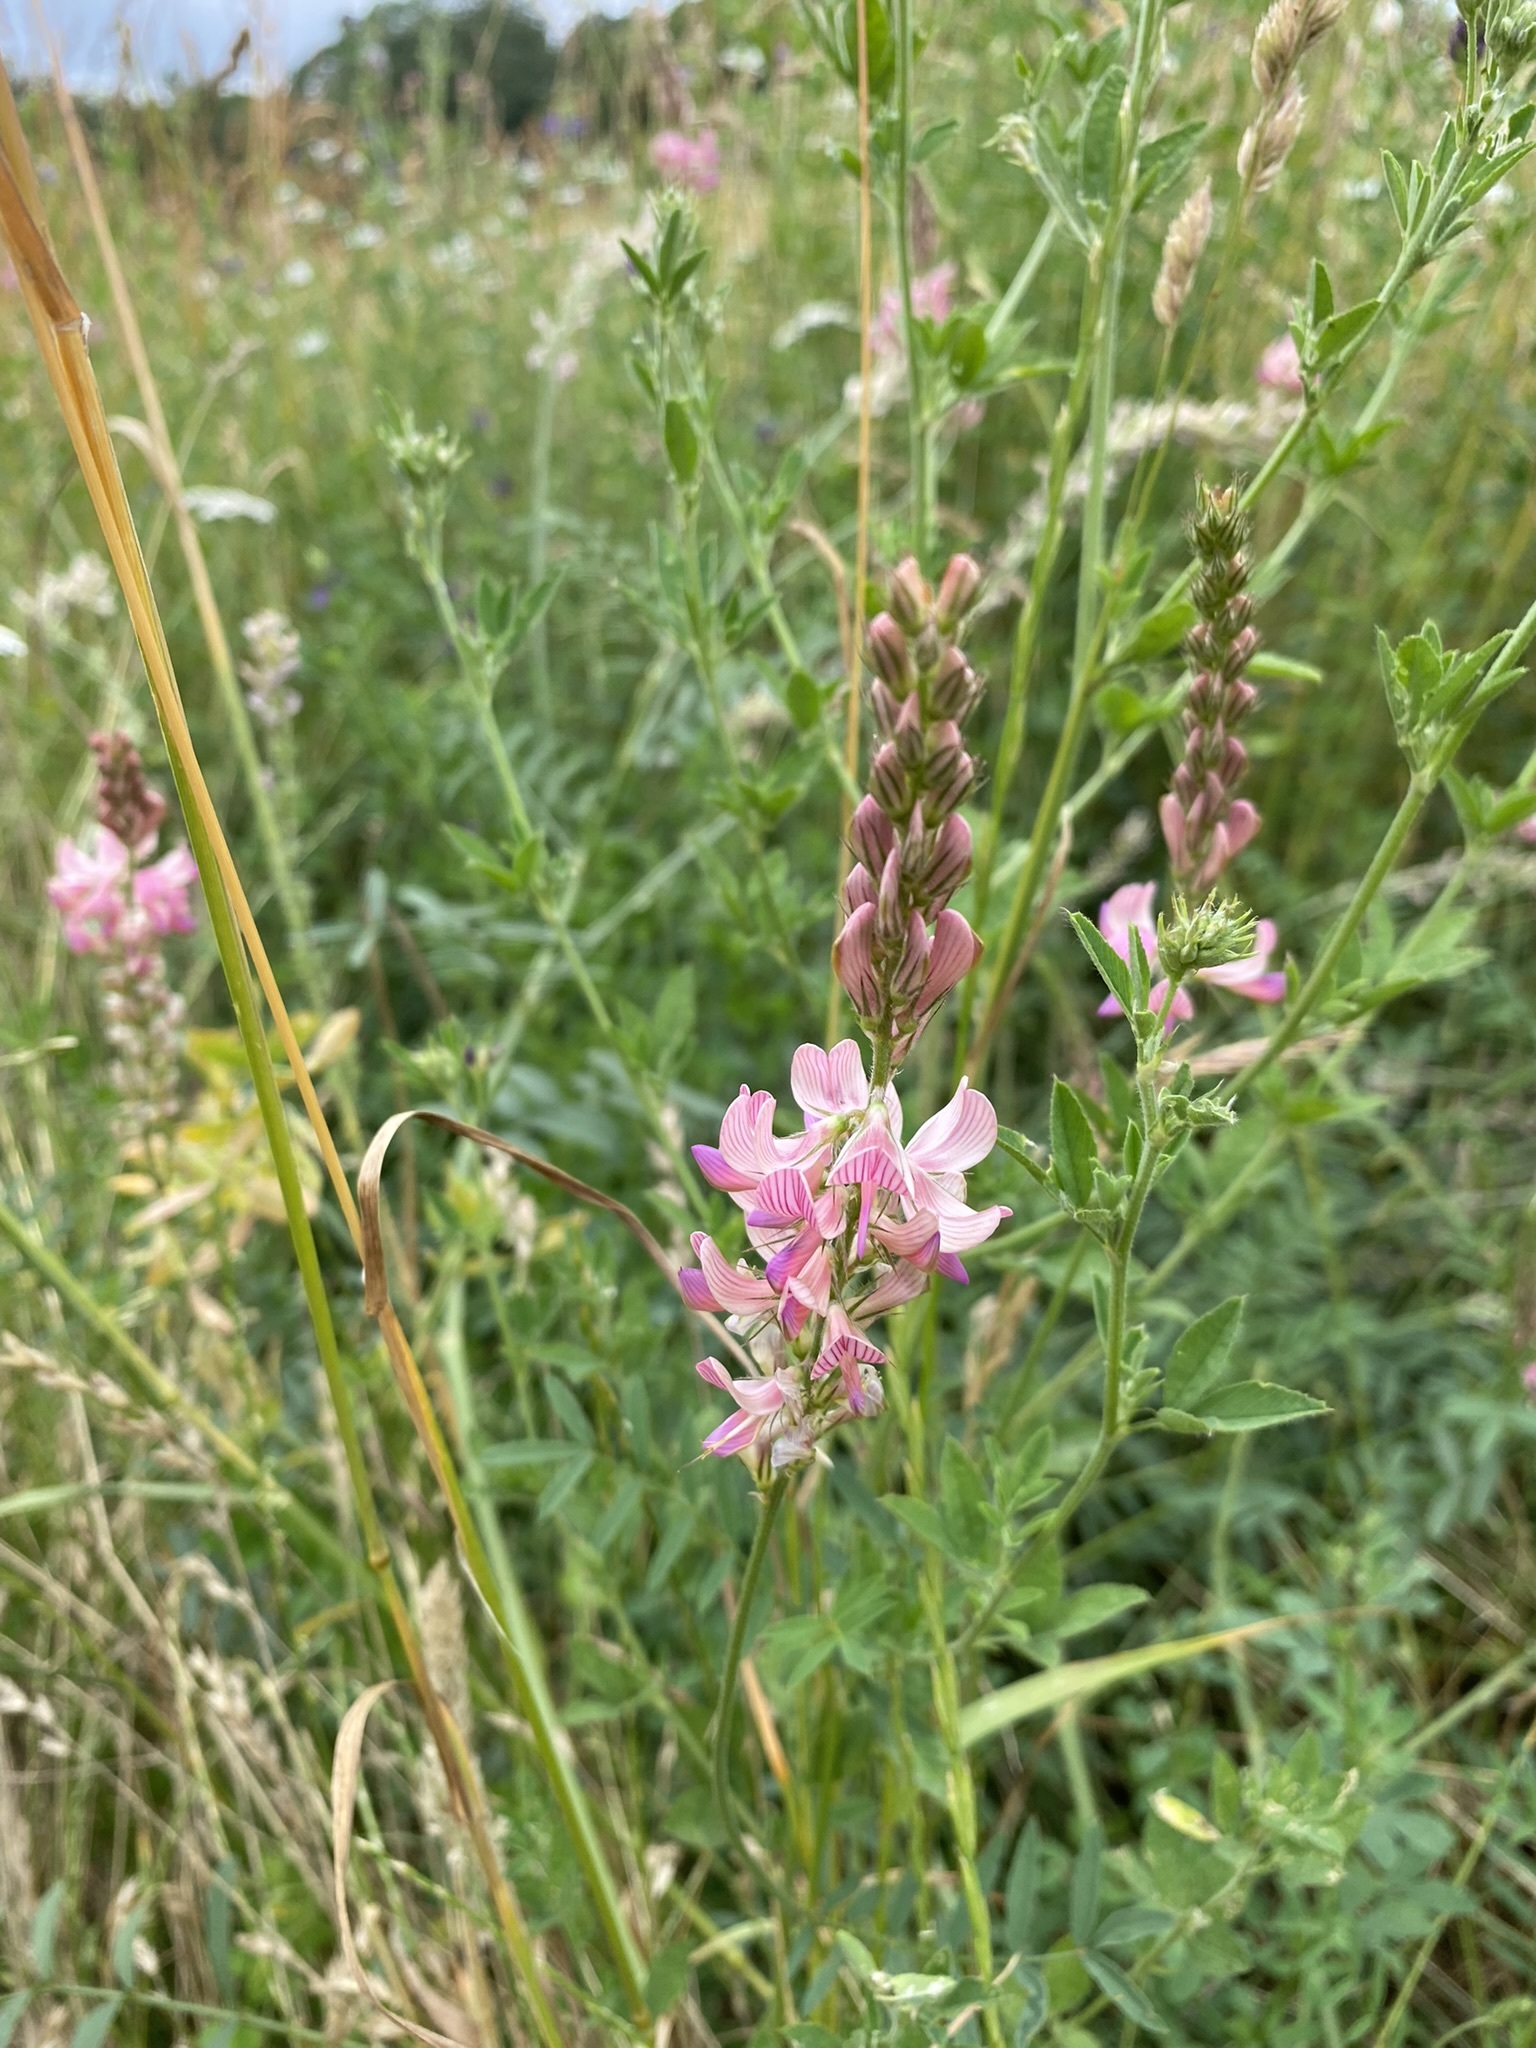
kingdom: Plantae
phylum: Tracheophyta
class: Magnoliopsida
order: Fabales
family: Fabaceae
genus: Onobrychis
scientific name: Onobrychis viciifolia
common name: Sainfoin
